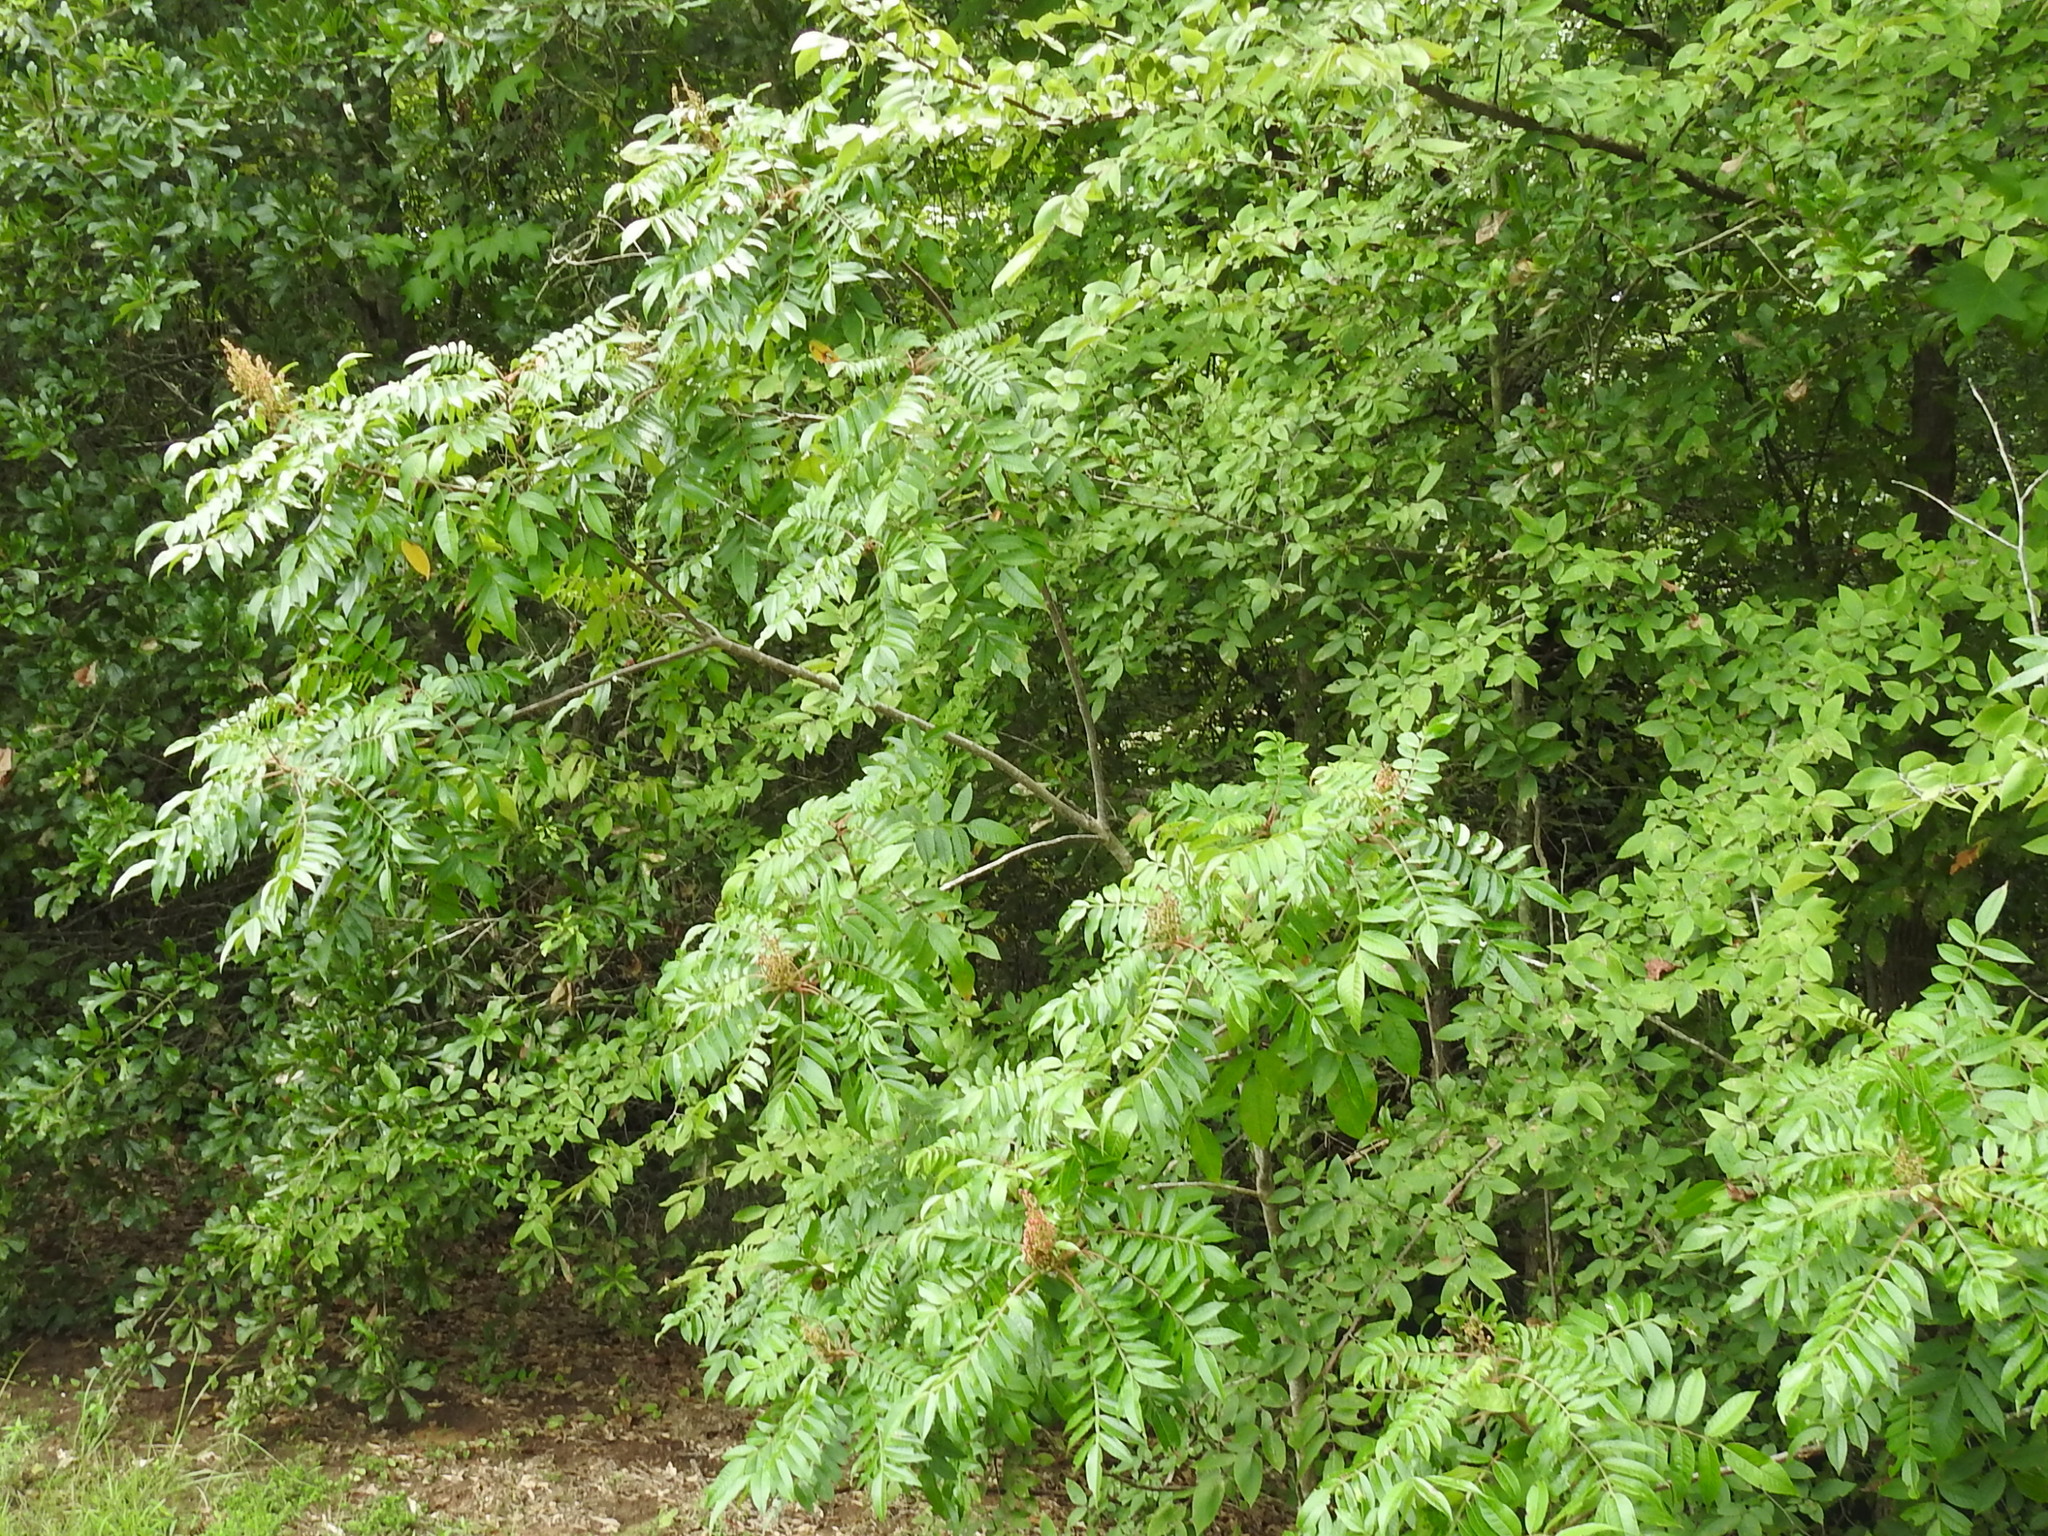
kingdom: Plantae
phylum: Tracheophyta
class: Magnoliopsida
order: Sapindales
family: Anacardiaceae
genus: Rhus
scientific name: Rhus copallina
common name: Shining sumac
